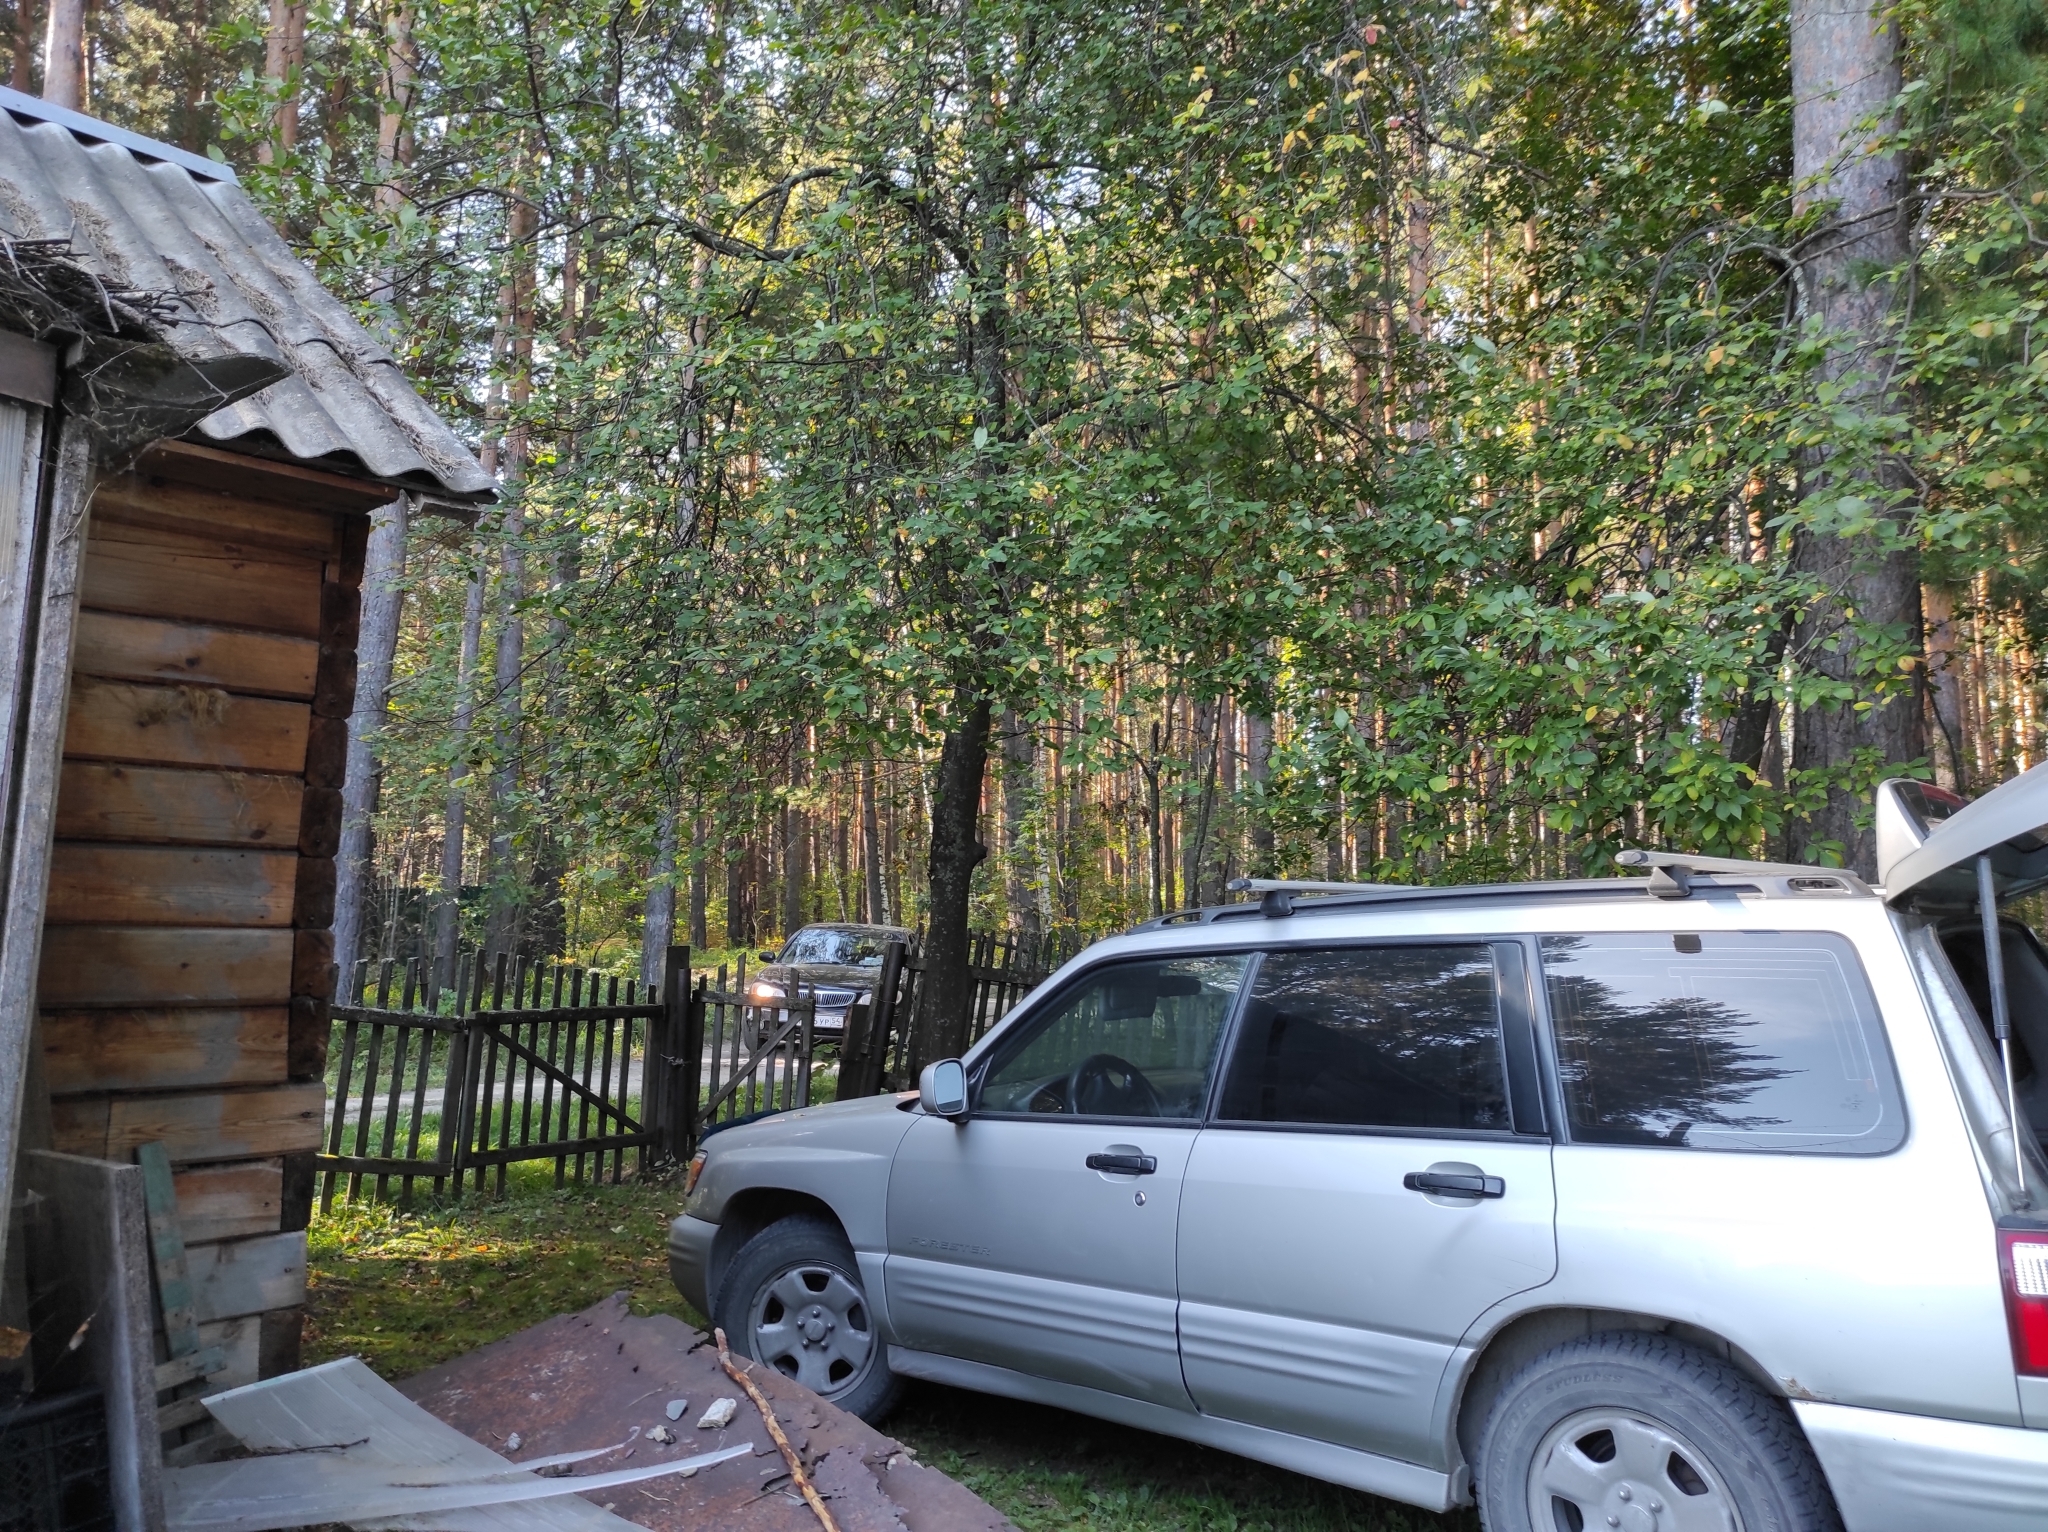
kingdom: Plantae
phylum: Tracheophyta
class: Magnoliopsida
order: Rosales
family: Rosaceae
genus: Prunus
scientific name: Prunus padus
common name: Bird cherry
